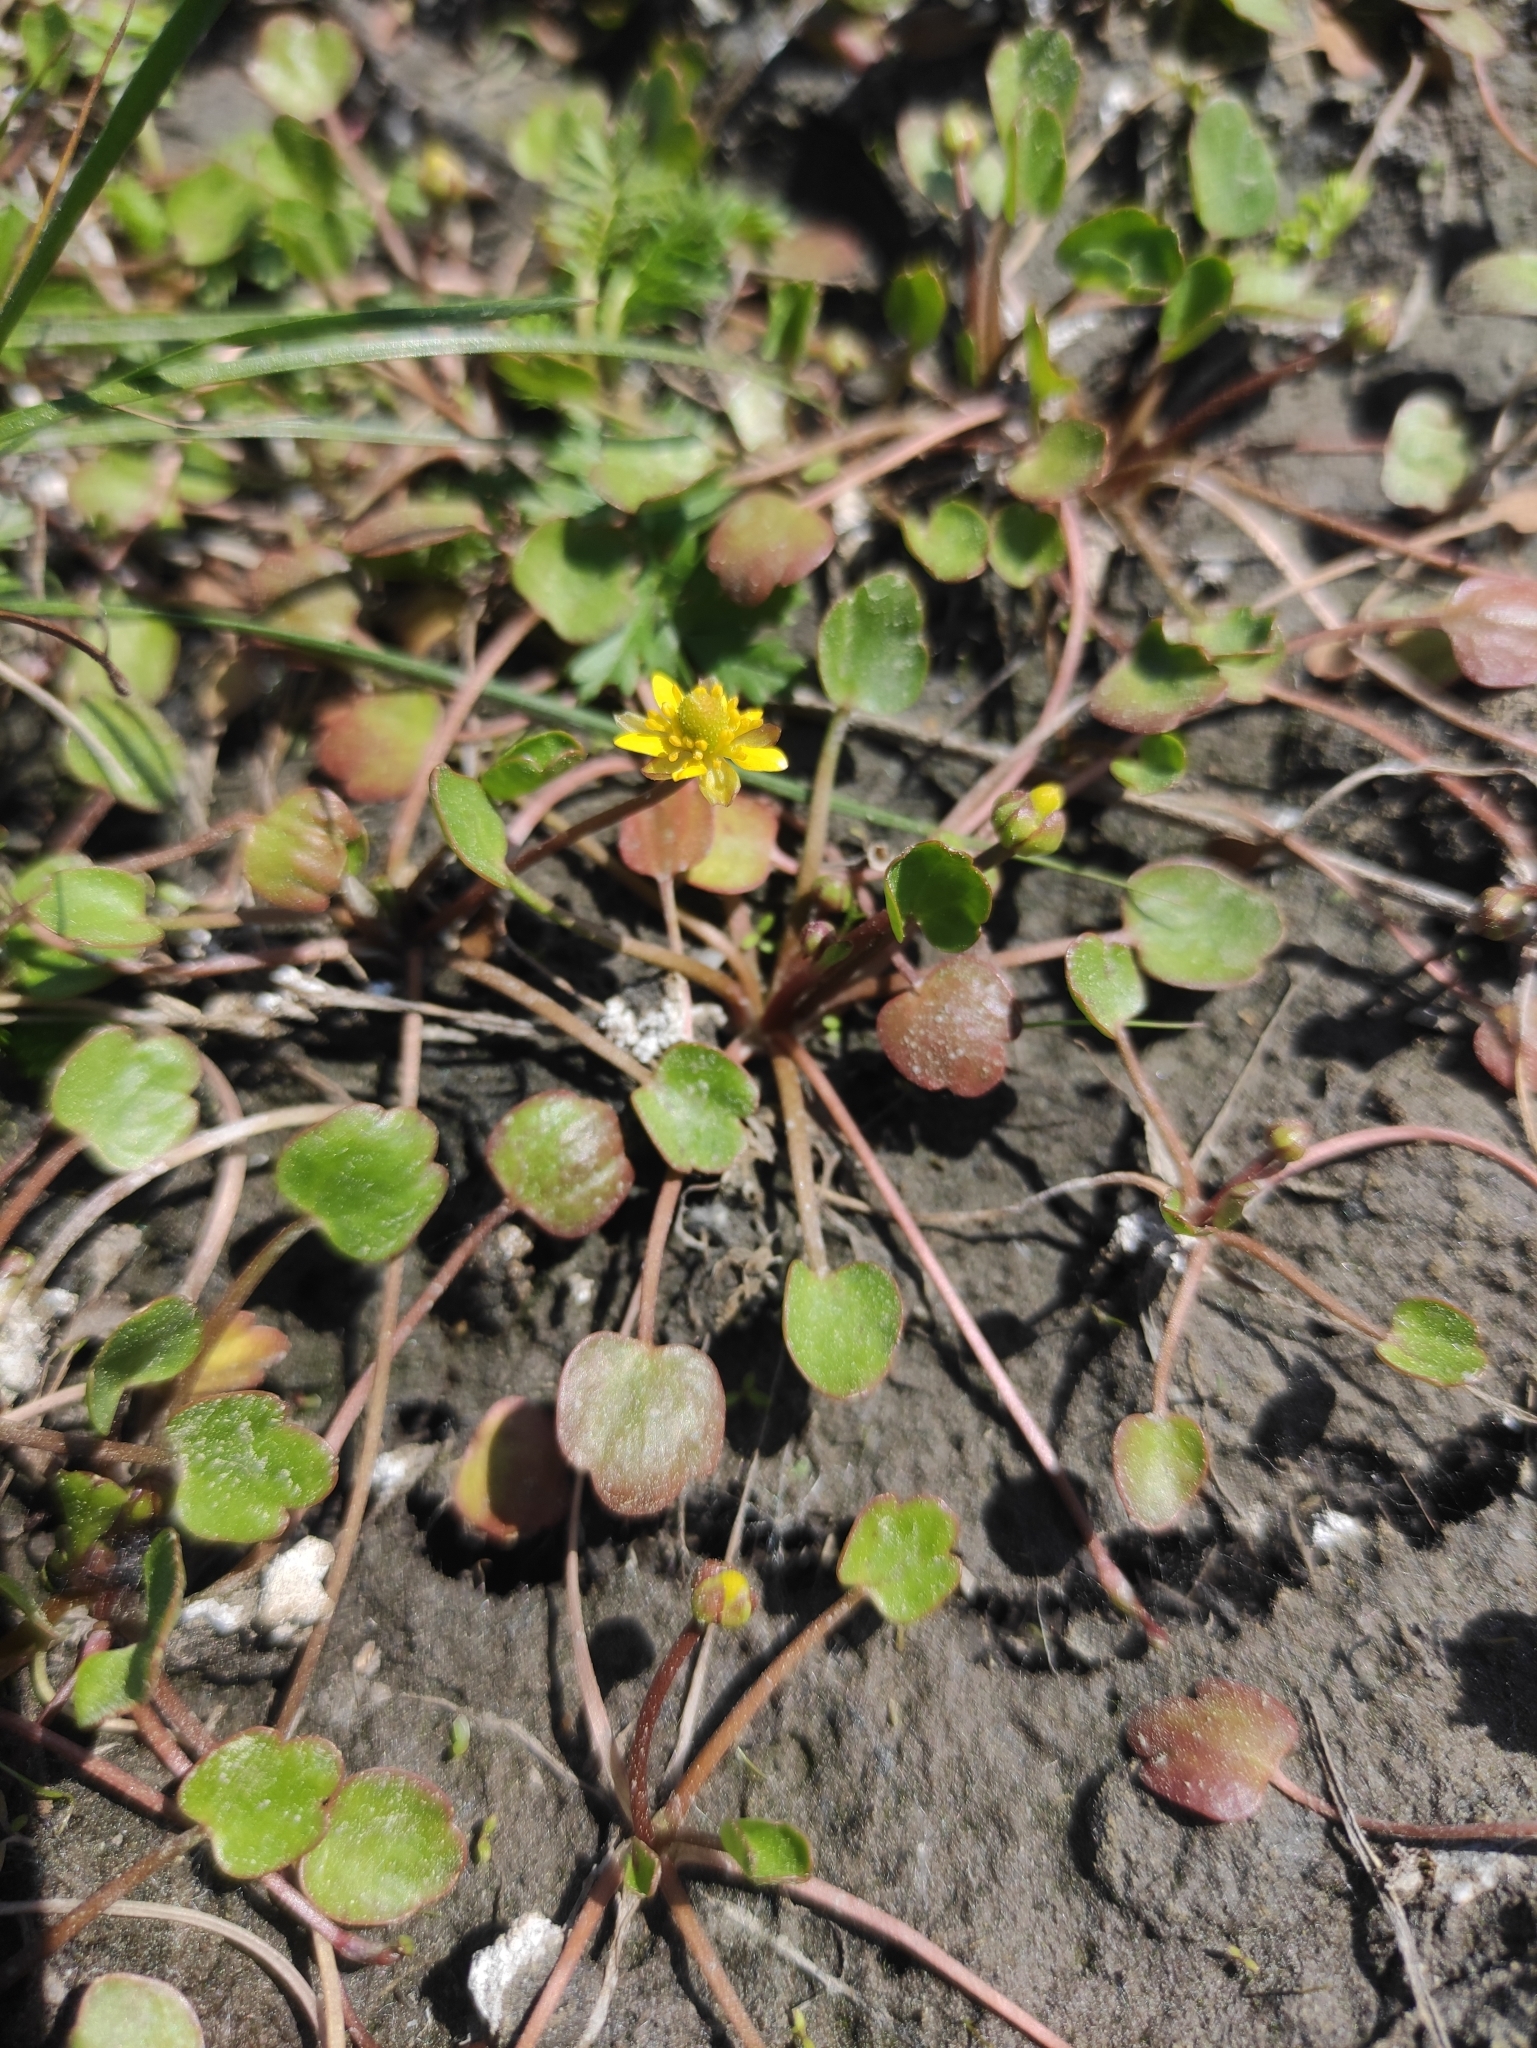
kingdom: Plantae
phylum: Tracheophyta
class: Magnoliopsida
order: Ranunculales
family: Ranunculaceae
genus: Halerpestes
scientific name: Halerpestes sarmentosus
